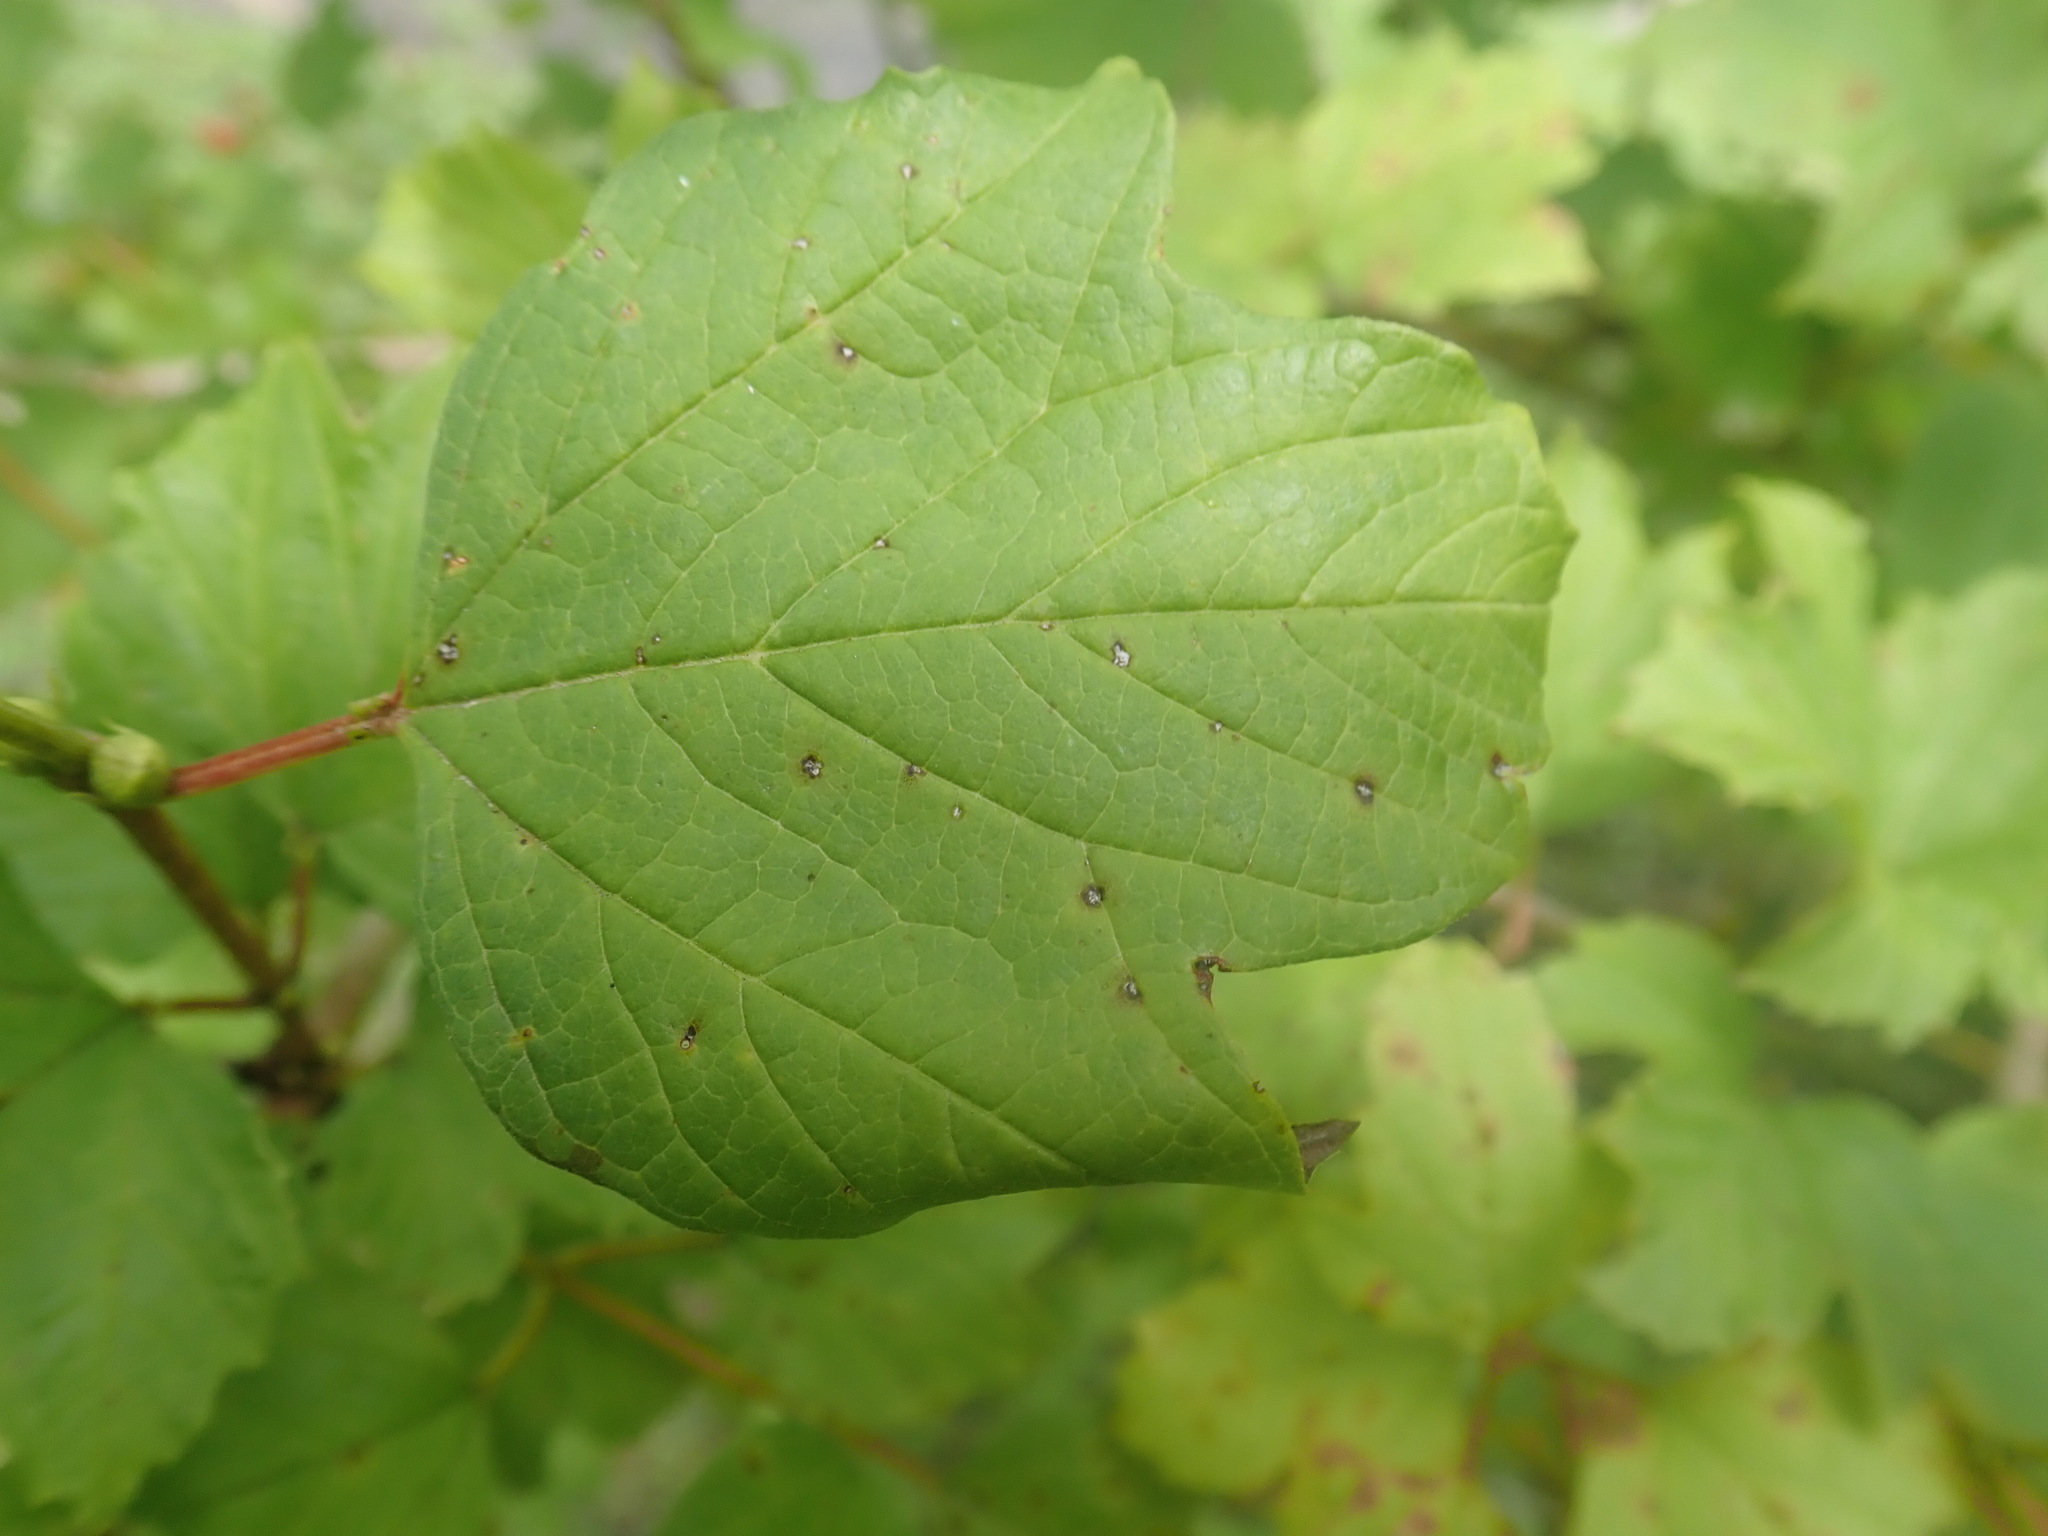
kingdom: Plantae
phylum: Tracheophyta
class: Magnoliopsida
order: Dipsacales
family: Viburnaceae
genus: Viburnum
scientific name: Viburnum opulus
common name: Guelder-rose
